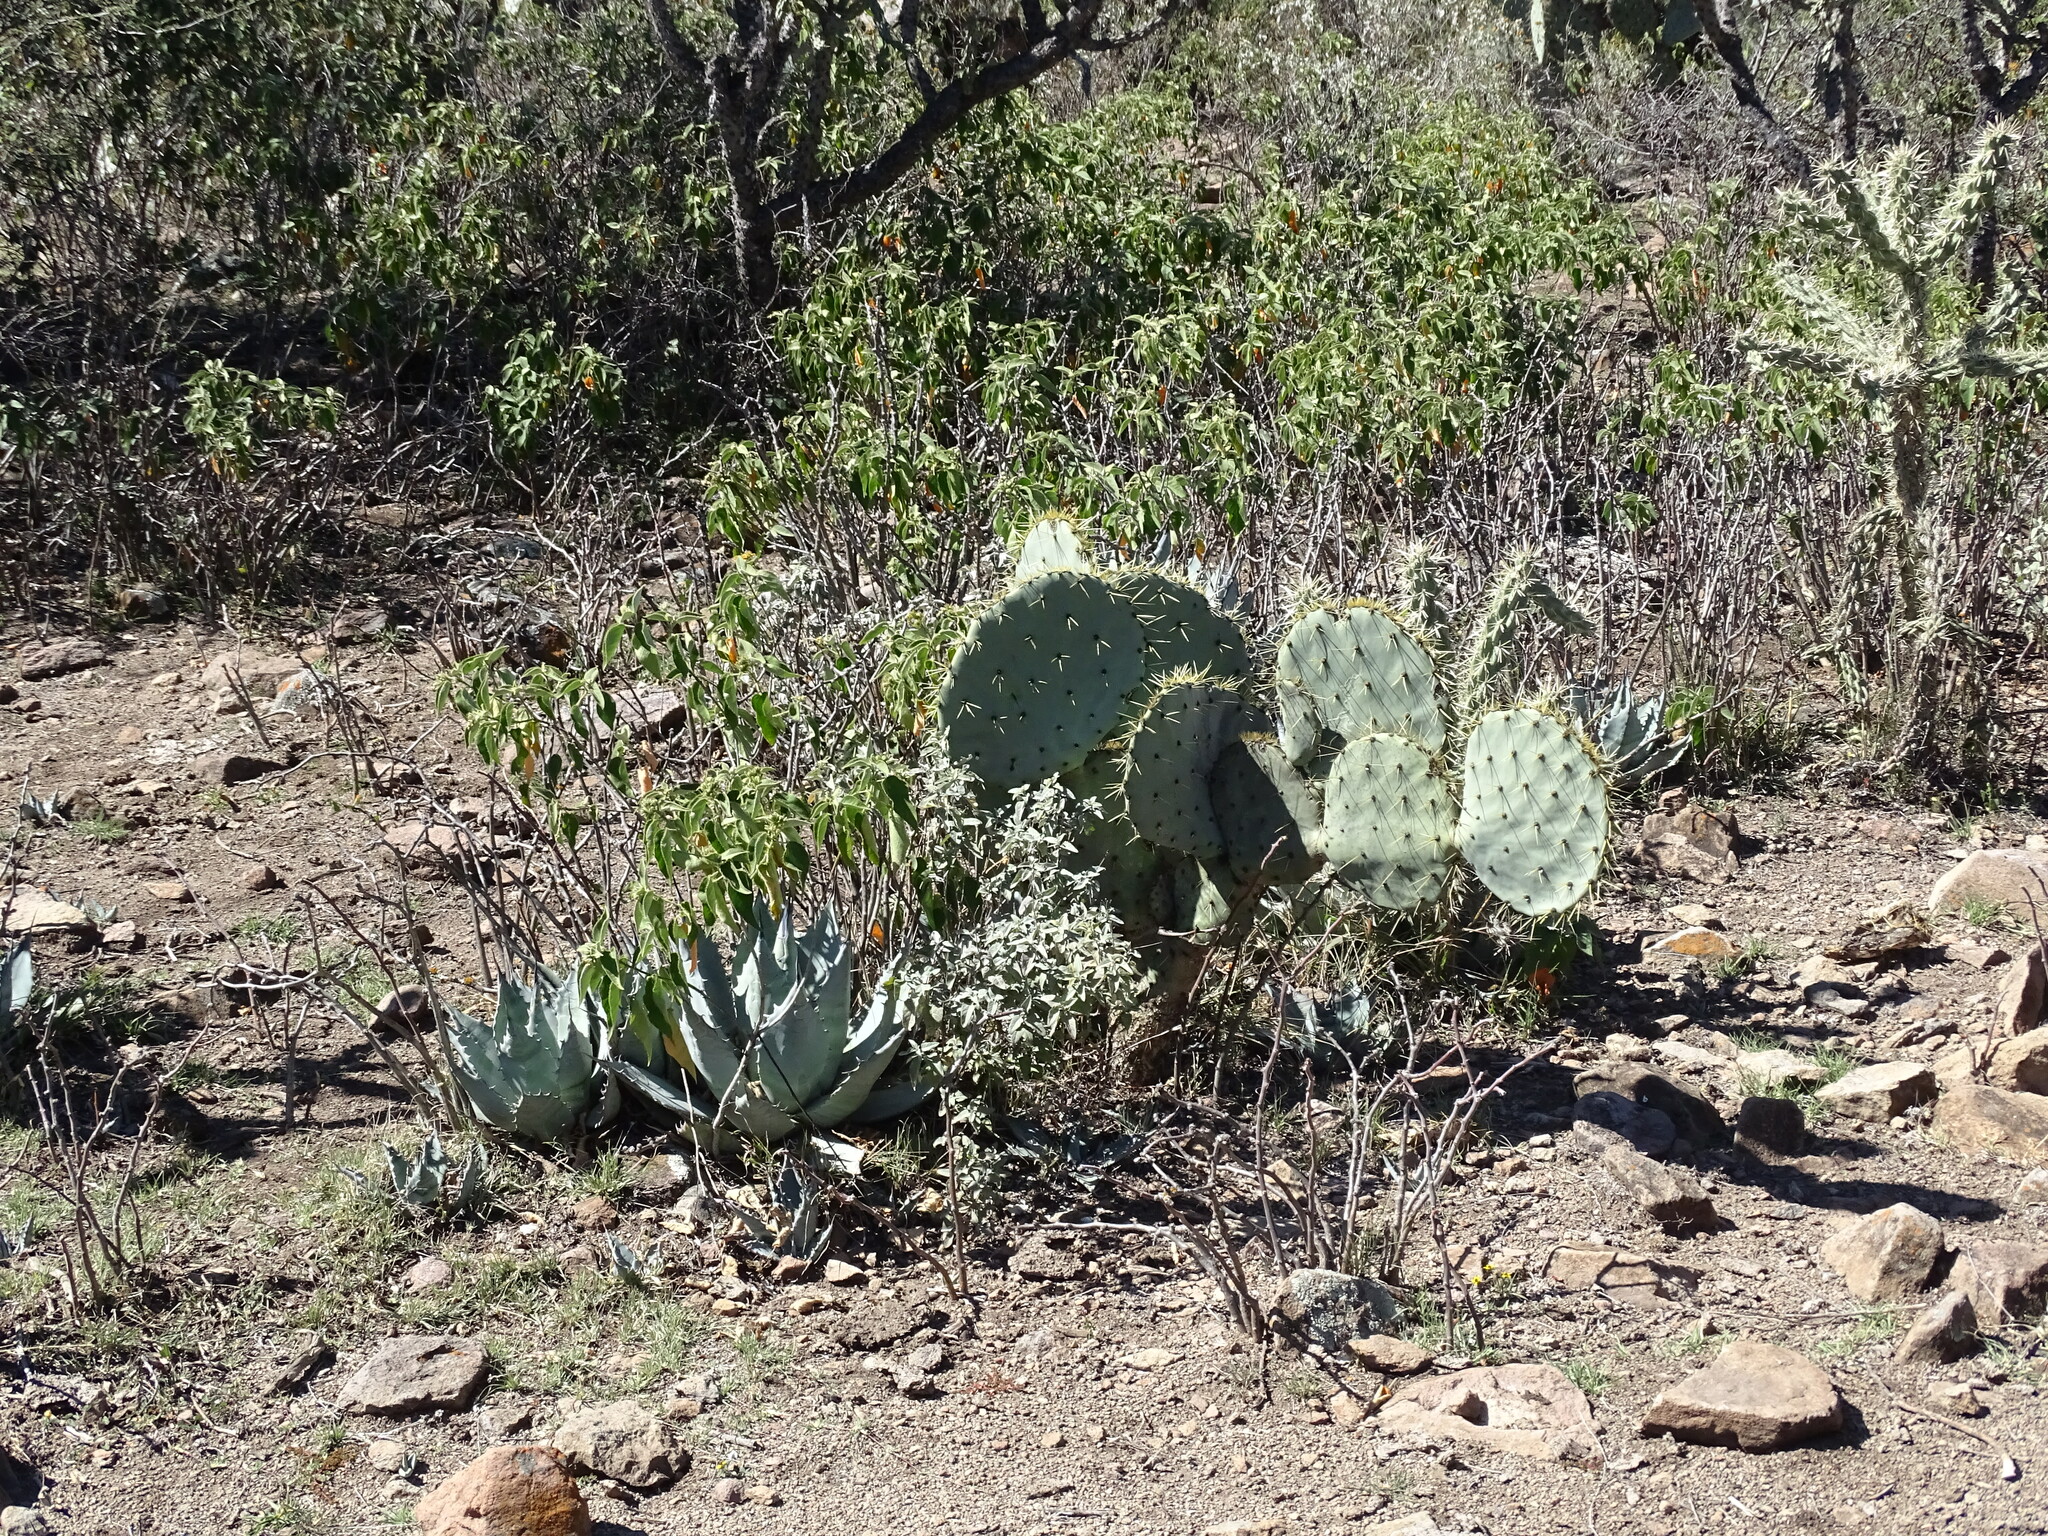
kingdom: Plantae
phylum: Tracheophyta
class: Liliopsida
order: Asparagales
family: Asparagaceae
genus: Agave
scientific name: Agave applanata
